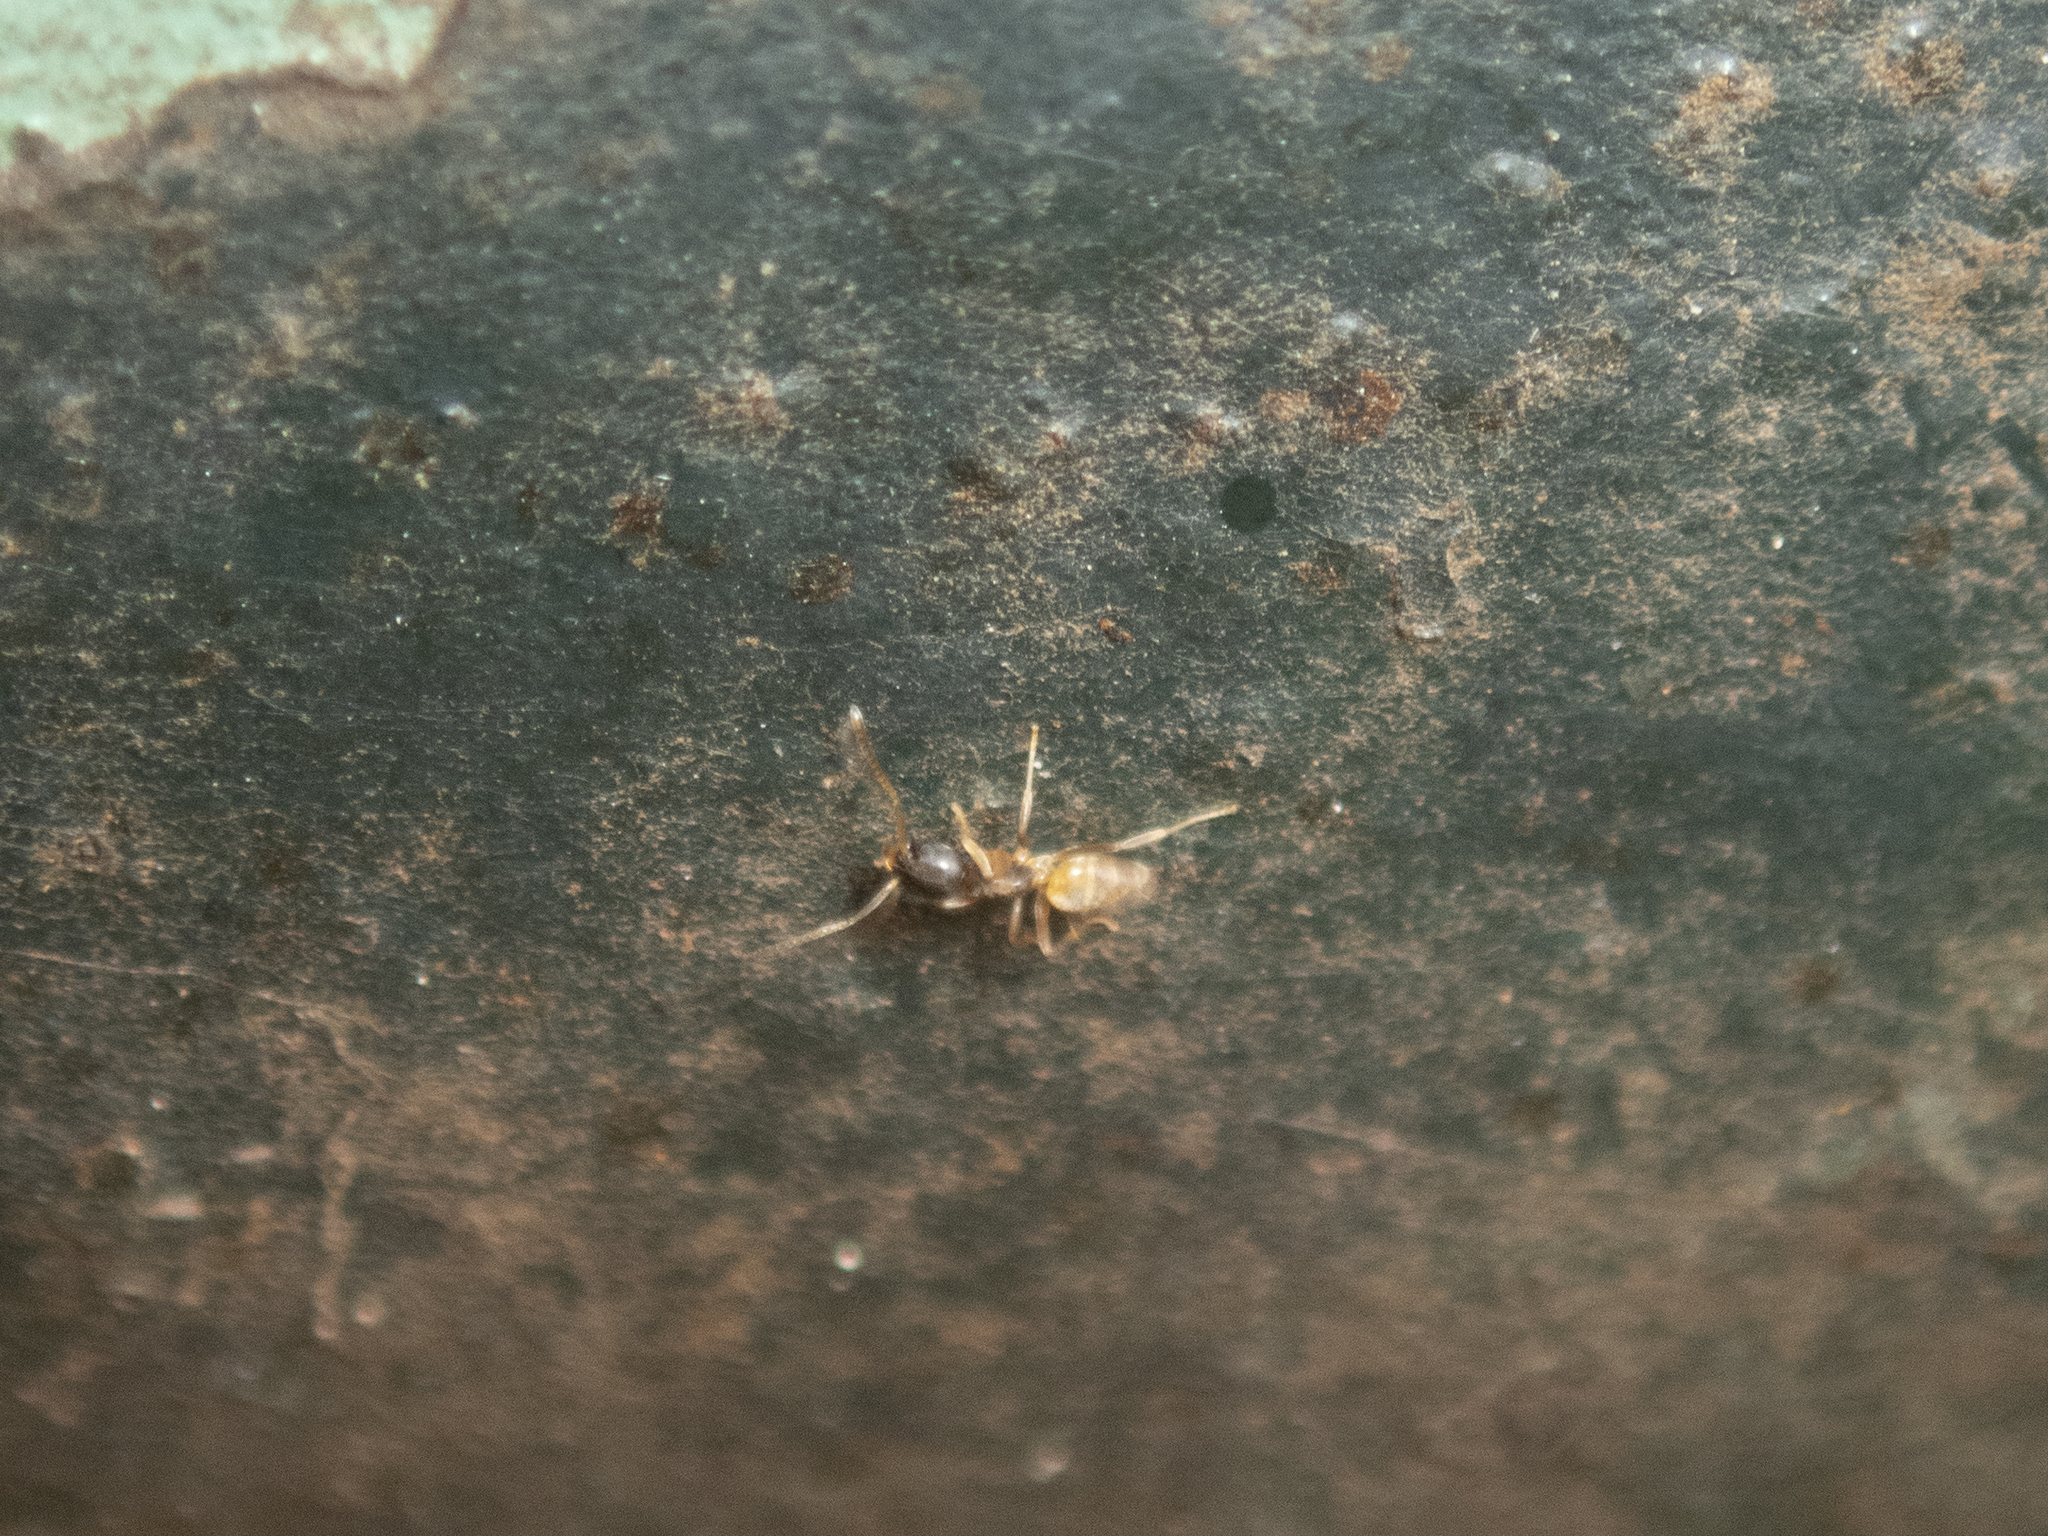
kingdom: Animalia
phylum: Arthropoda
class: Insecta
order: Hymenoptera
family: Formicidae
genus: Tapinoma
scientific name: Tapinoma melanocephalum
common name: Ghost ant
